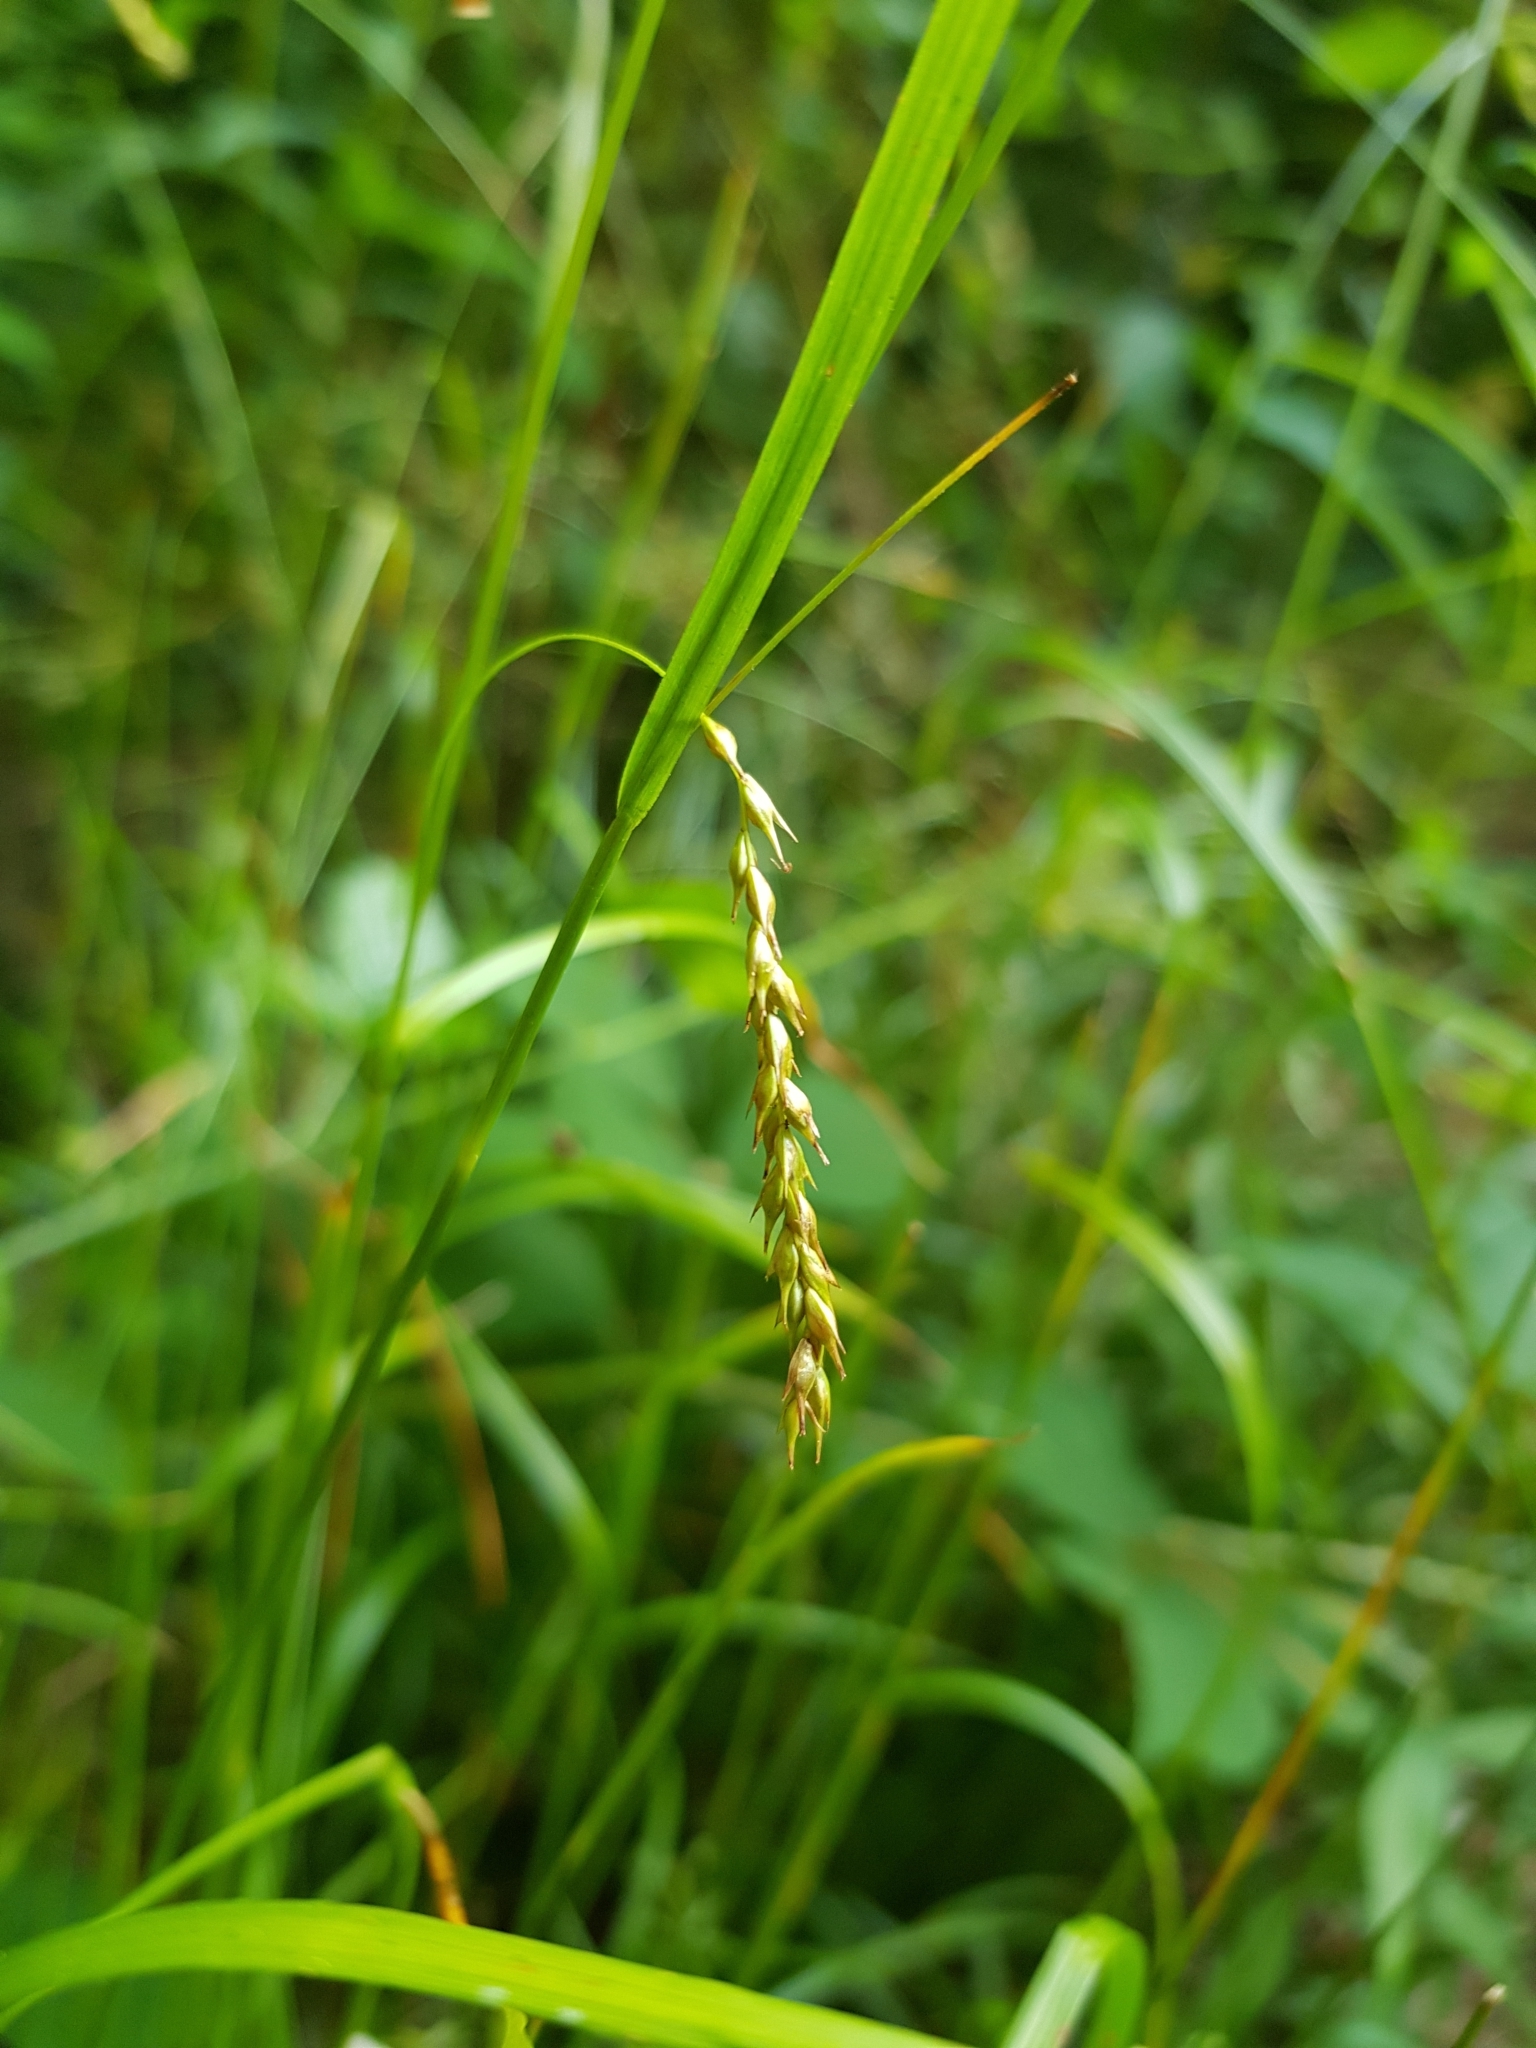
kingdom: Plantae
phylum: Tracheophyta
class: Liliopsida
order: Poales
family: Cyperaceae
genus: Carex
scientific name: Carex sylvatica
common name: Wood-sedge
